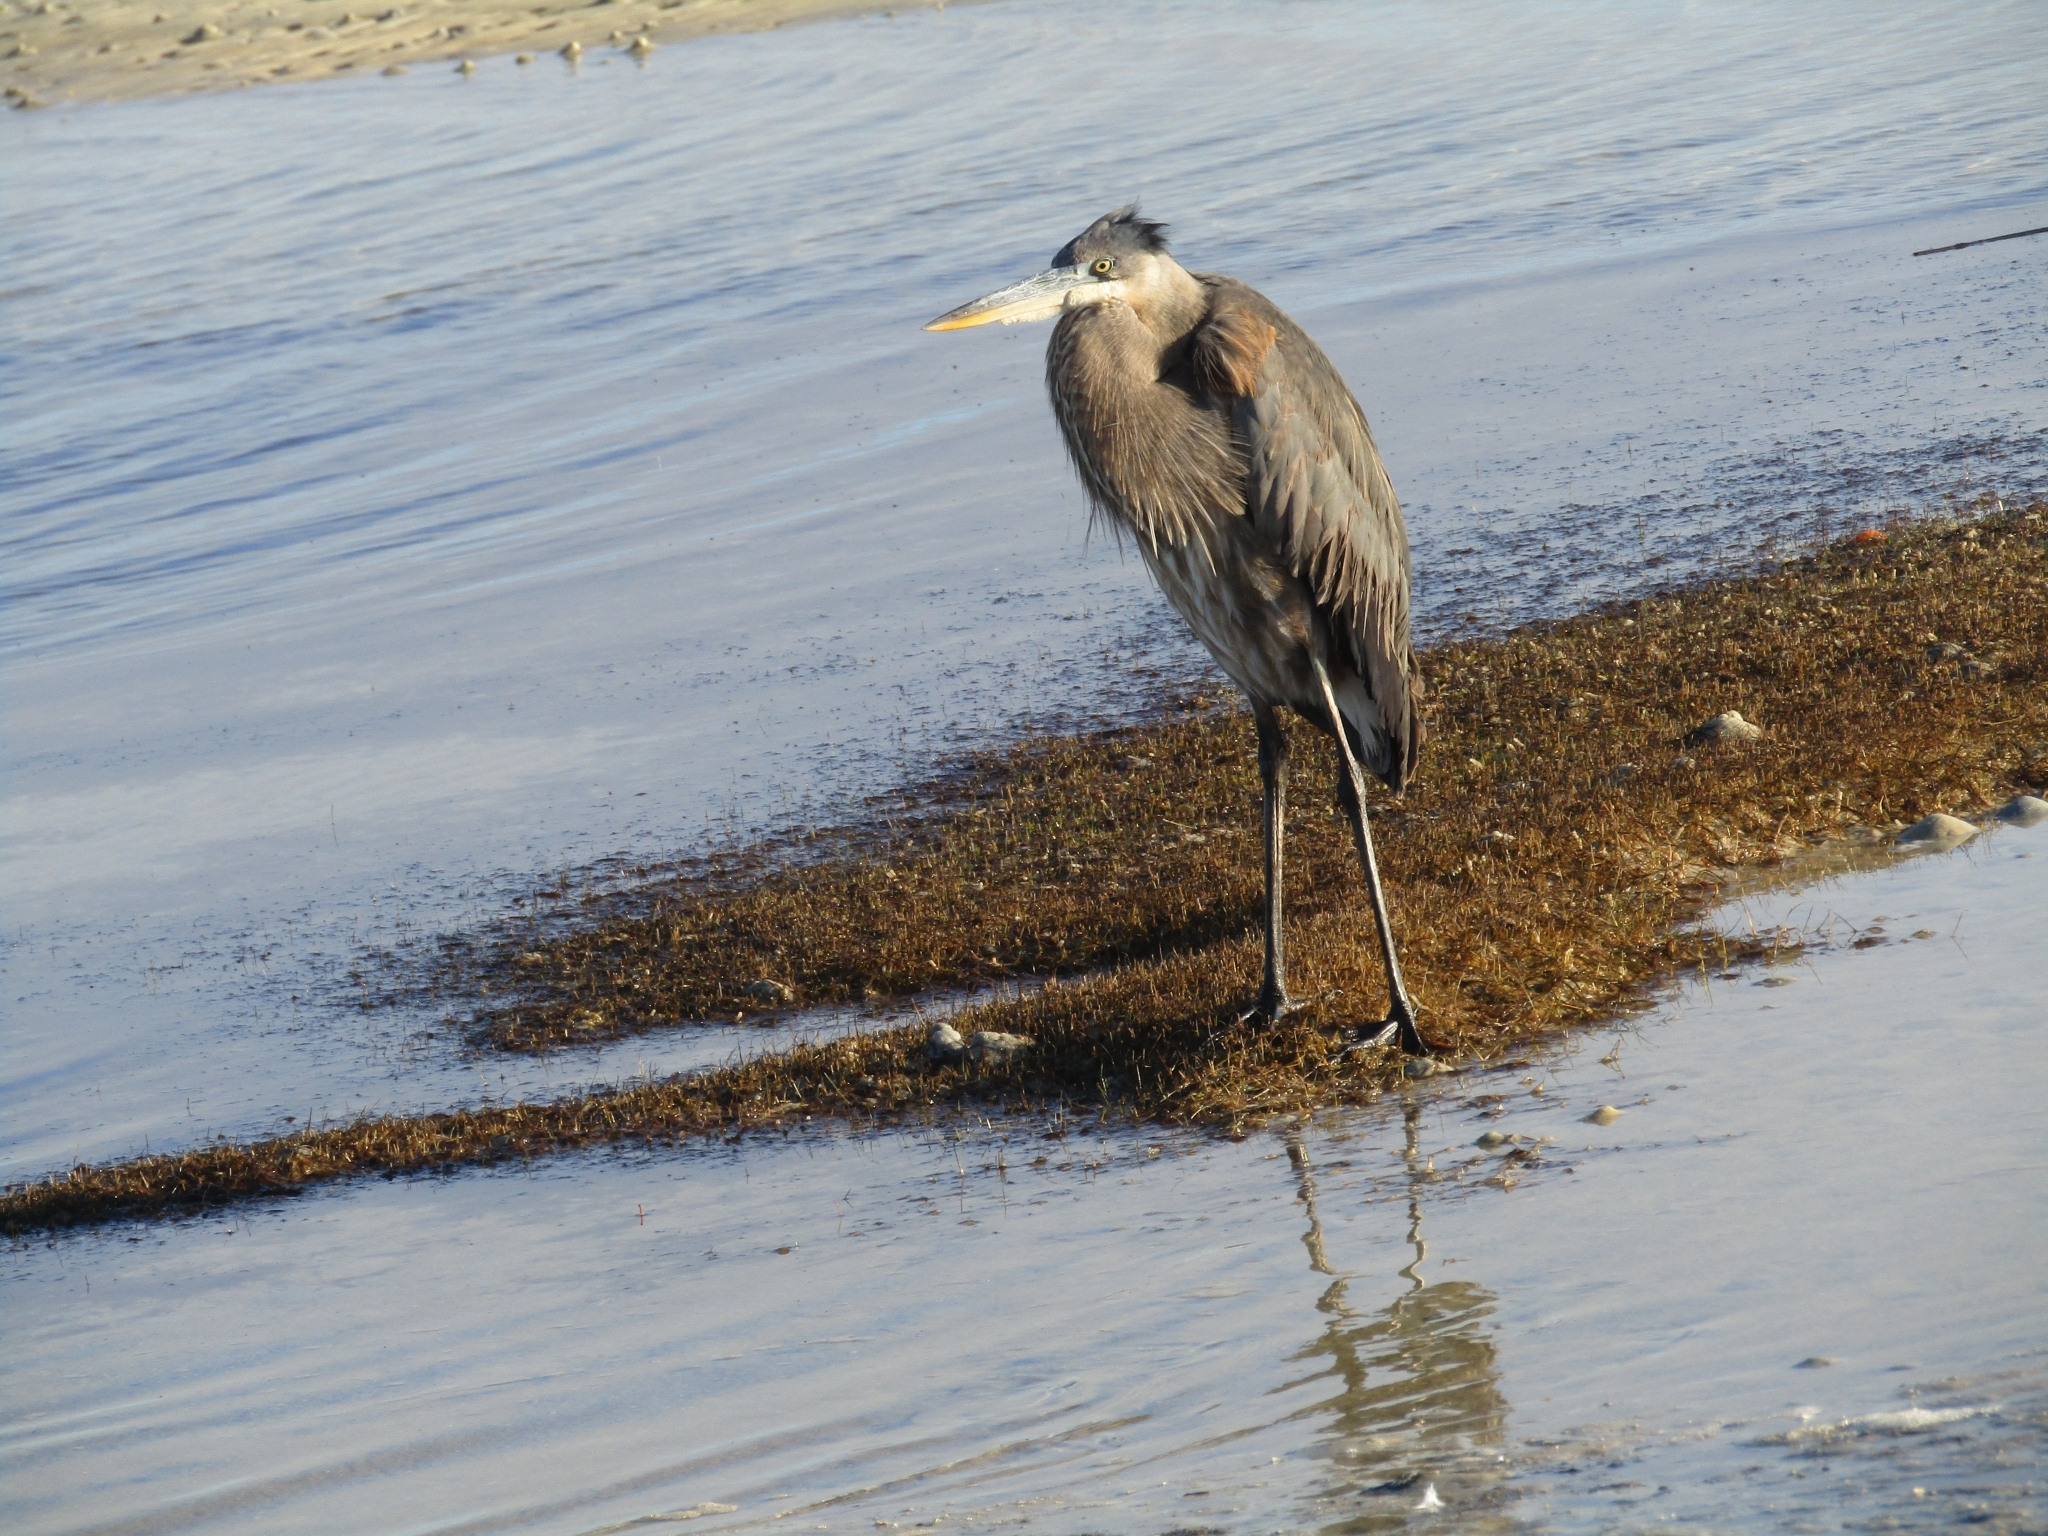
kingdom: Animalia
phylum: Chordata
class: Aves
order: Pelecaniformes
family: Ardeidae
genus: Ardea
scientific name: Ardea herodias
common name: Great blue heron
